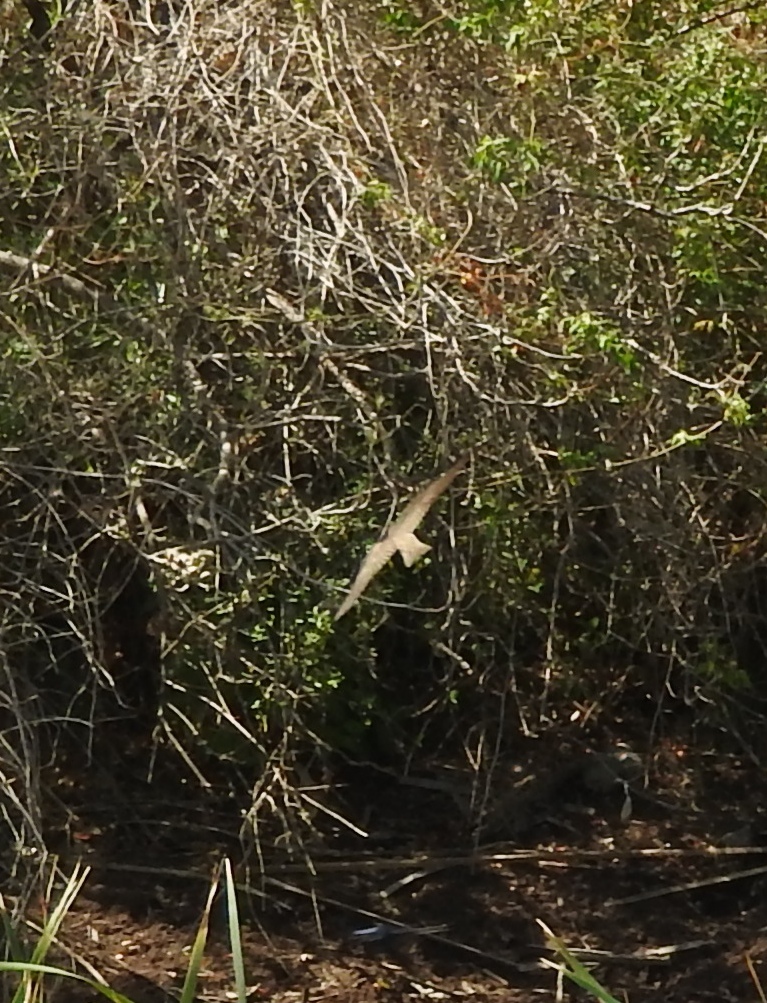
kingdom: Animalia
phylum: Chordata
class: Aves
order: Passeriformes
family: Hirundinidae
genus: Stelgidopteryx
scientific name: Stelgidopteryx serripennis
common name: Northern rough-winged swallow
